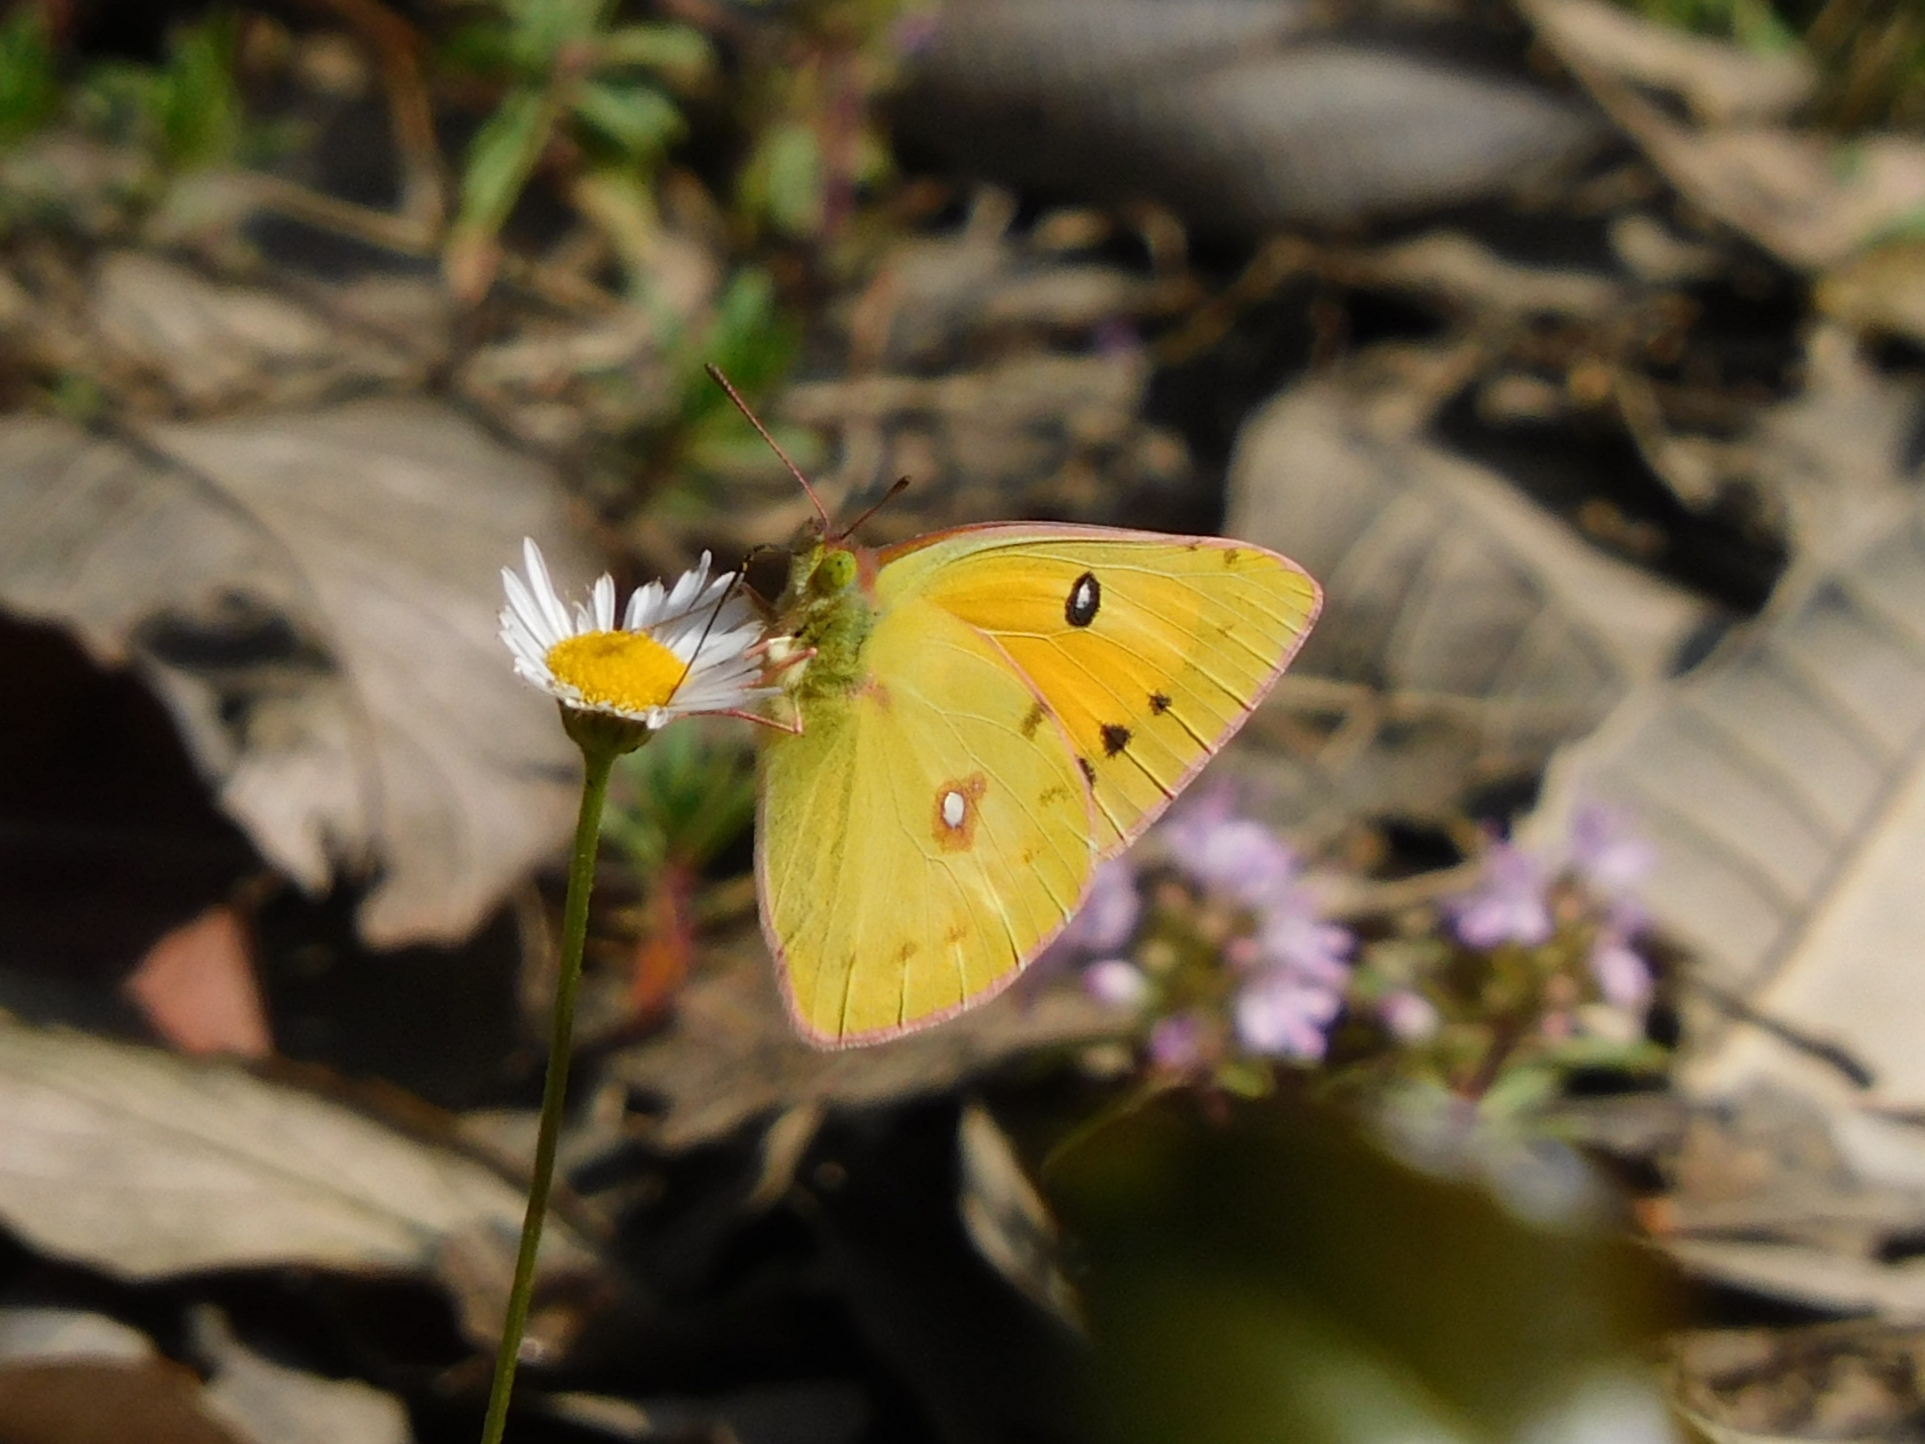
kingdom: Animalia
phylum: Arthropoda
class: Insecta
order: Lepidoptera
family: Pieridae
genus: Colias
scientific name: Colias fieldii
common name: Dark clouded yellow
